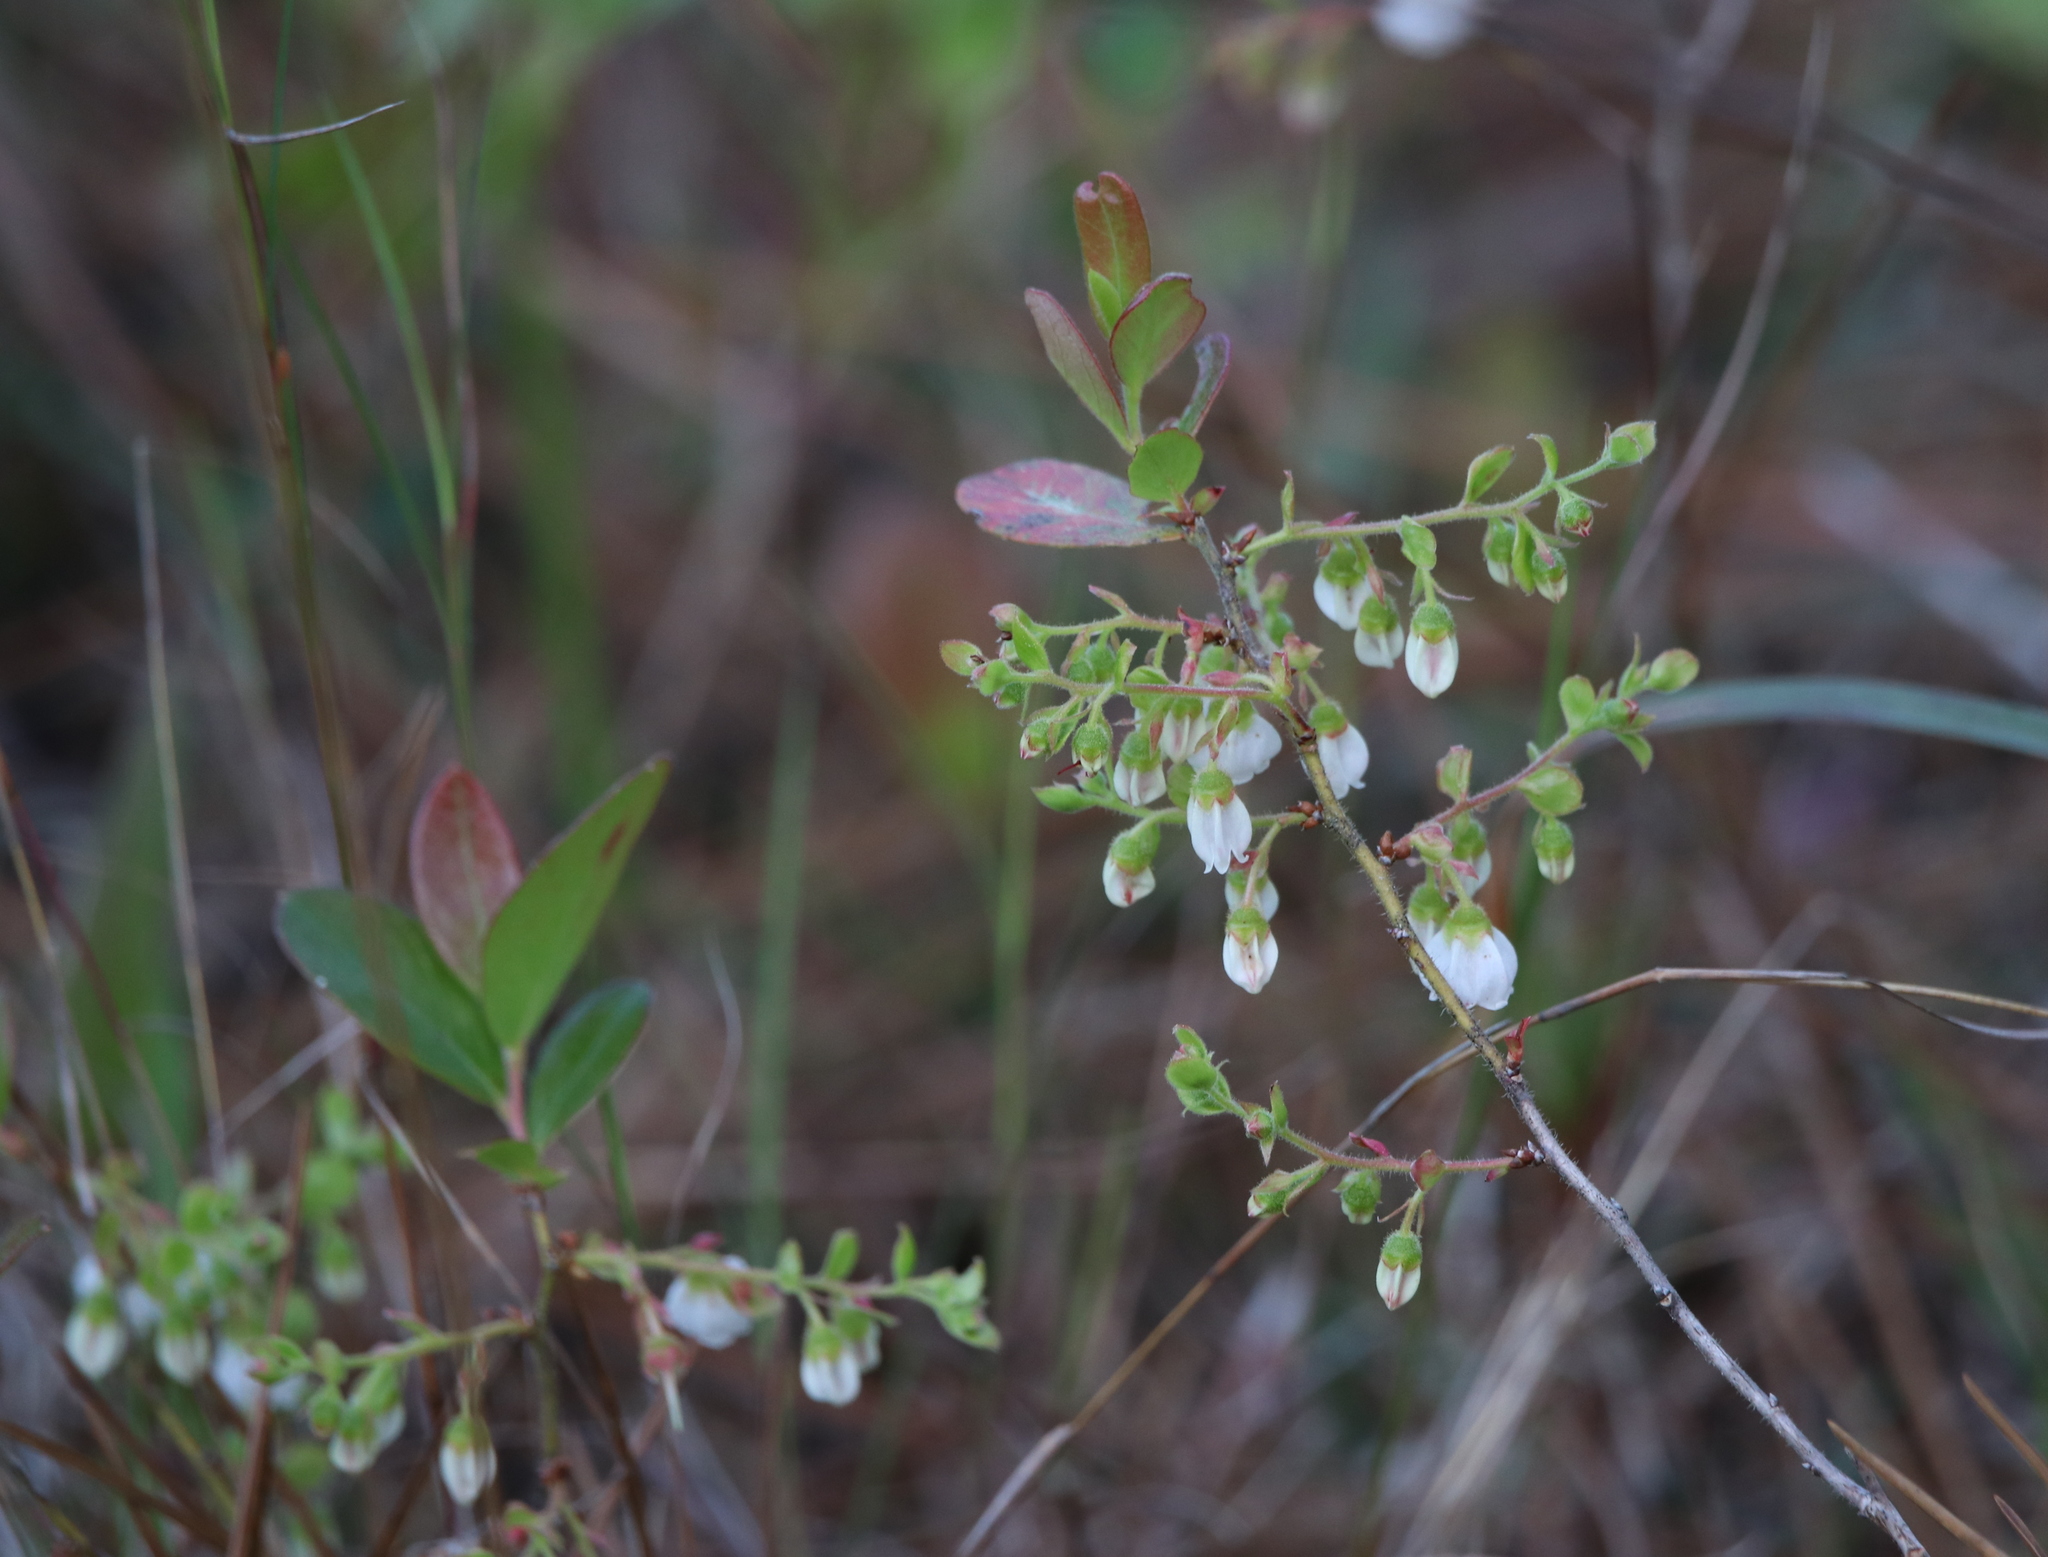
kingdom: Plantae
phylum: Tracheophyta
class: Magnoliopsida
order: Ericales
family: Ericaceae
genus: Gaylussacia
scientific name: Gaylussacia dumosa
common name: Dwarf huckleberry
